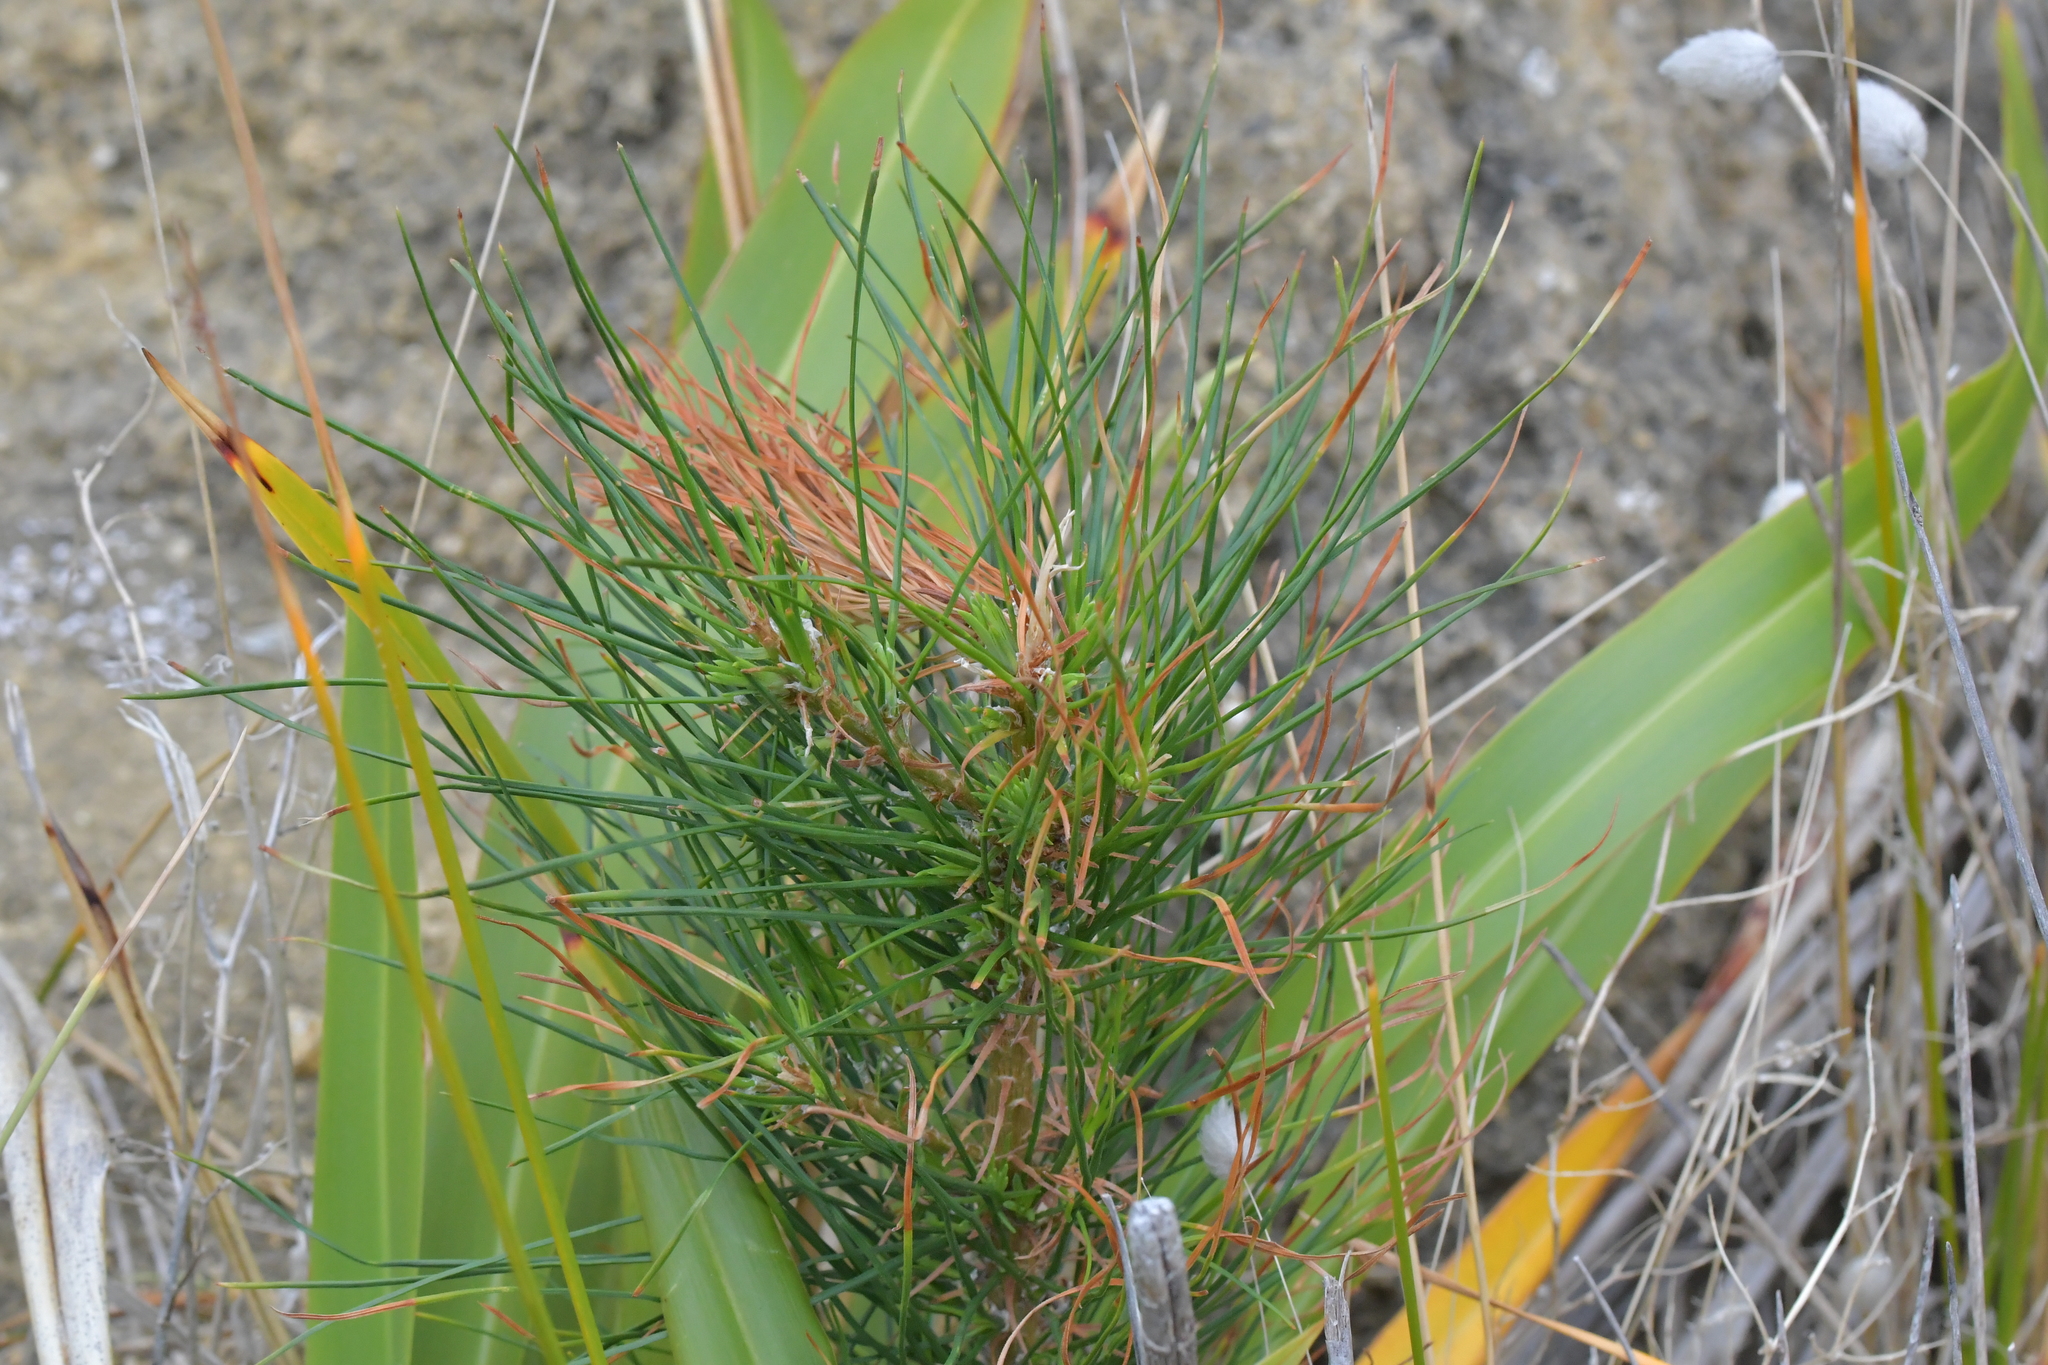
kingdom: Plantae
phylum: Tracheophyta
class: Pinopsida
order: Pinales
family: Pinaceae
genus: Pinus
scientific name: Pinus radiata
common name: Monterey pine
